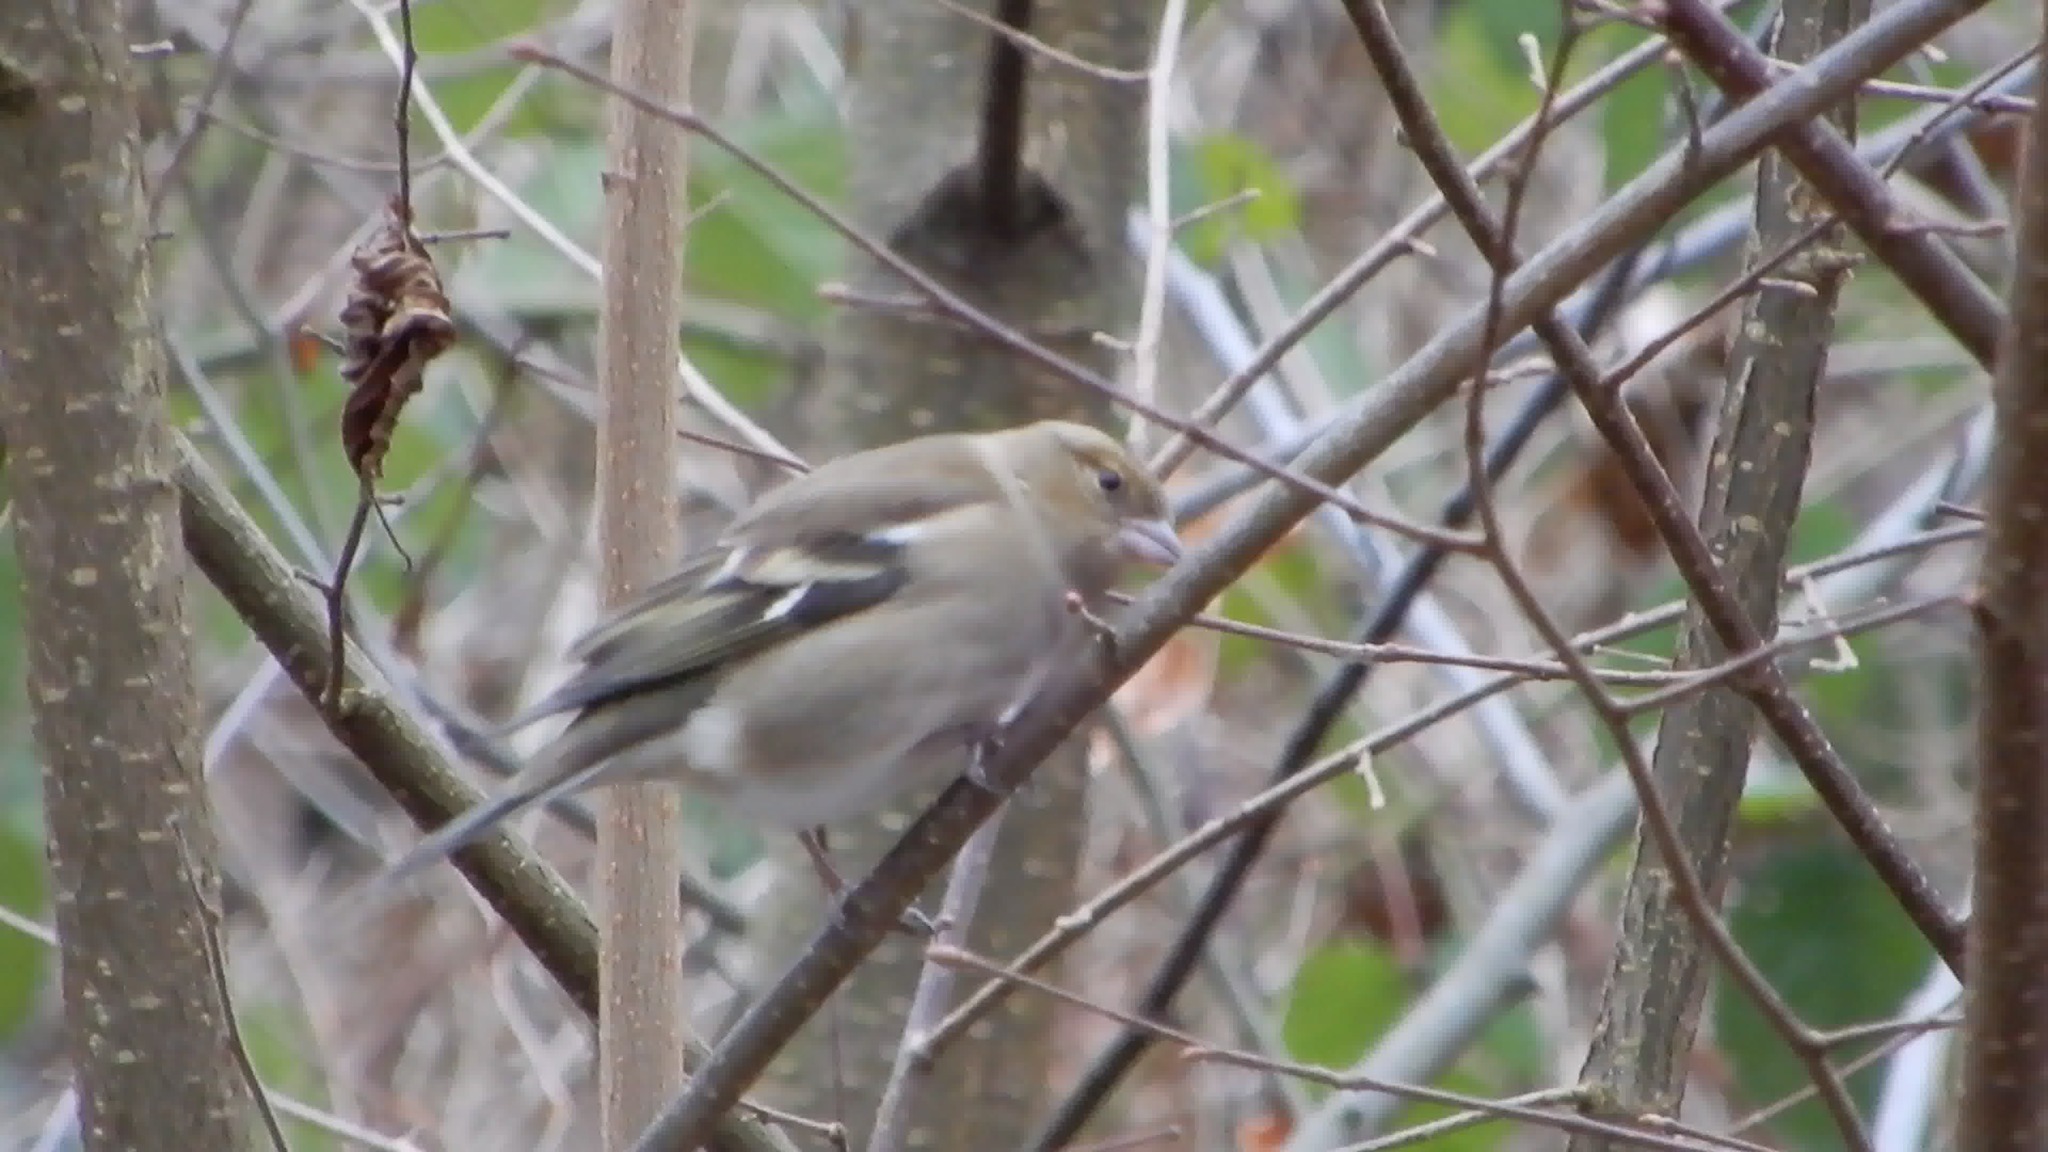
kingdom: Animalia
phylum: Chordata
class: Aves
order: Passeriformes
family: Fringillidae
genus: Fringilla
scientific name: Fringilla coelebs
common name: Common chaffinch
